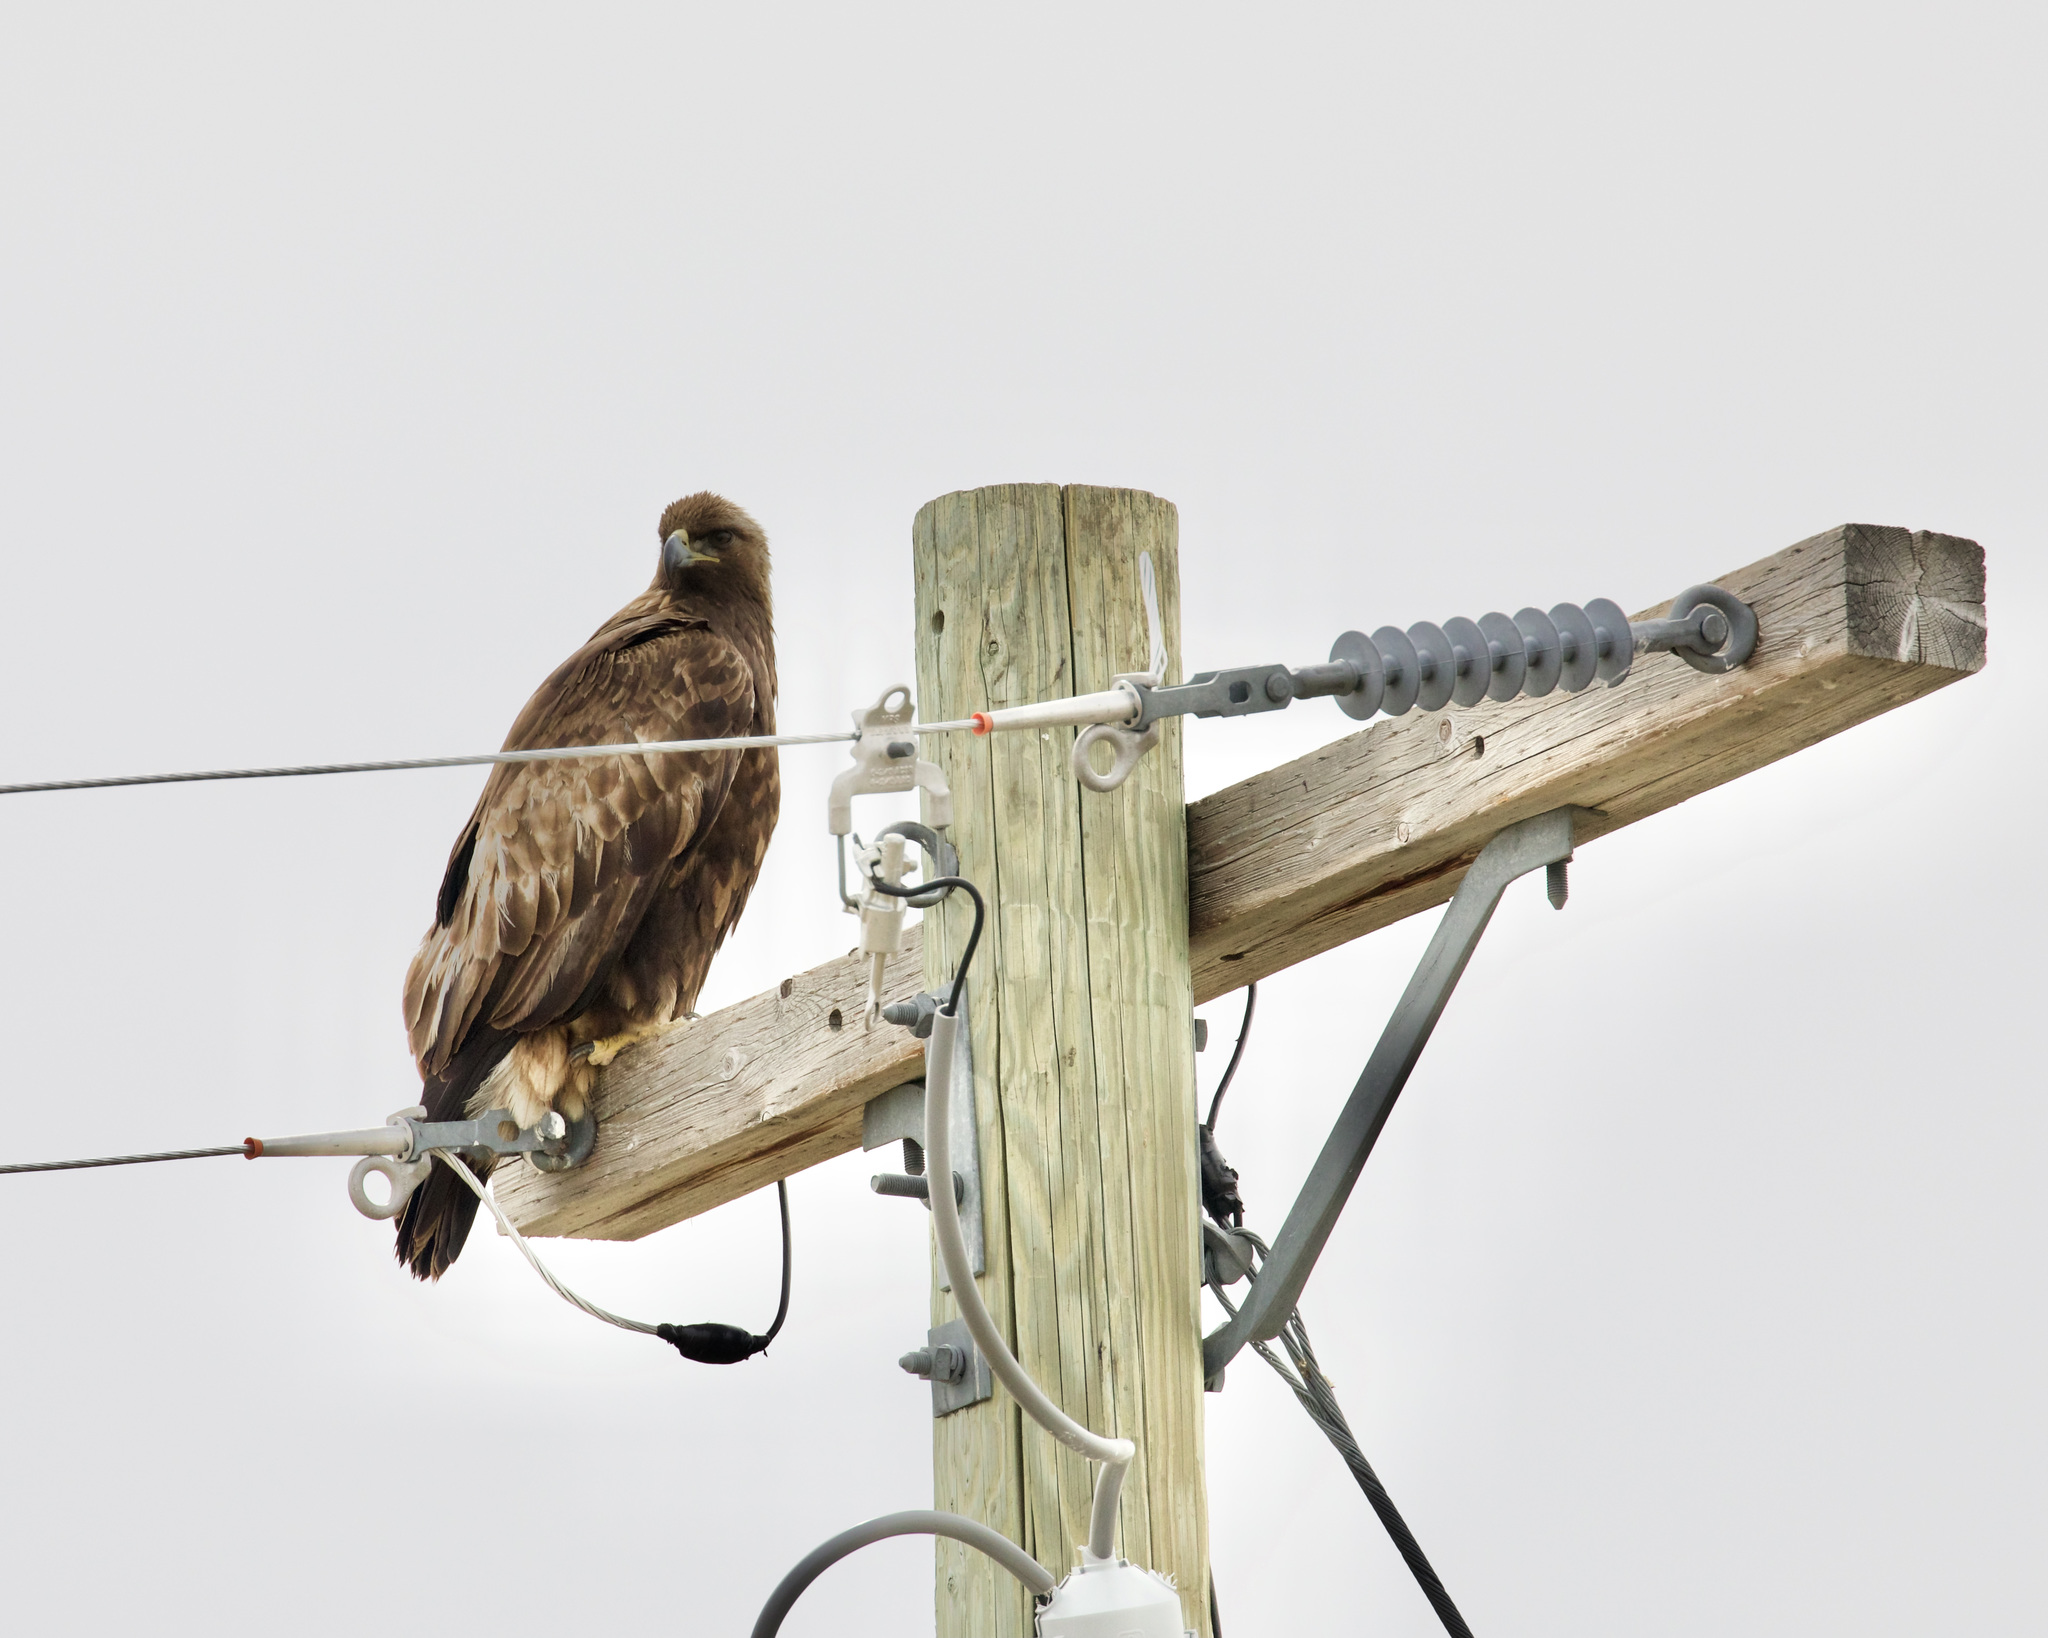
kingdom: Animalia
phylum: Chordata
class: Aves
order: Accipitriformes
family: Accipitridae
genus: Aquila
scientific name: Aquila chrysaetos
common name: Golden eagle
